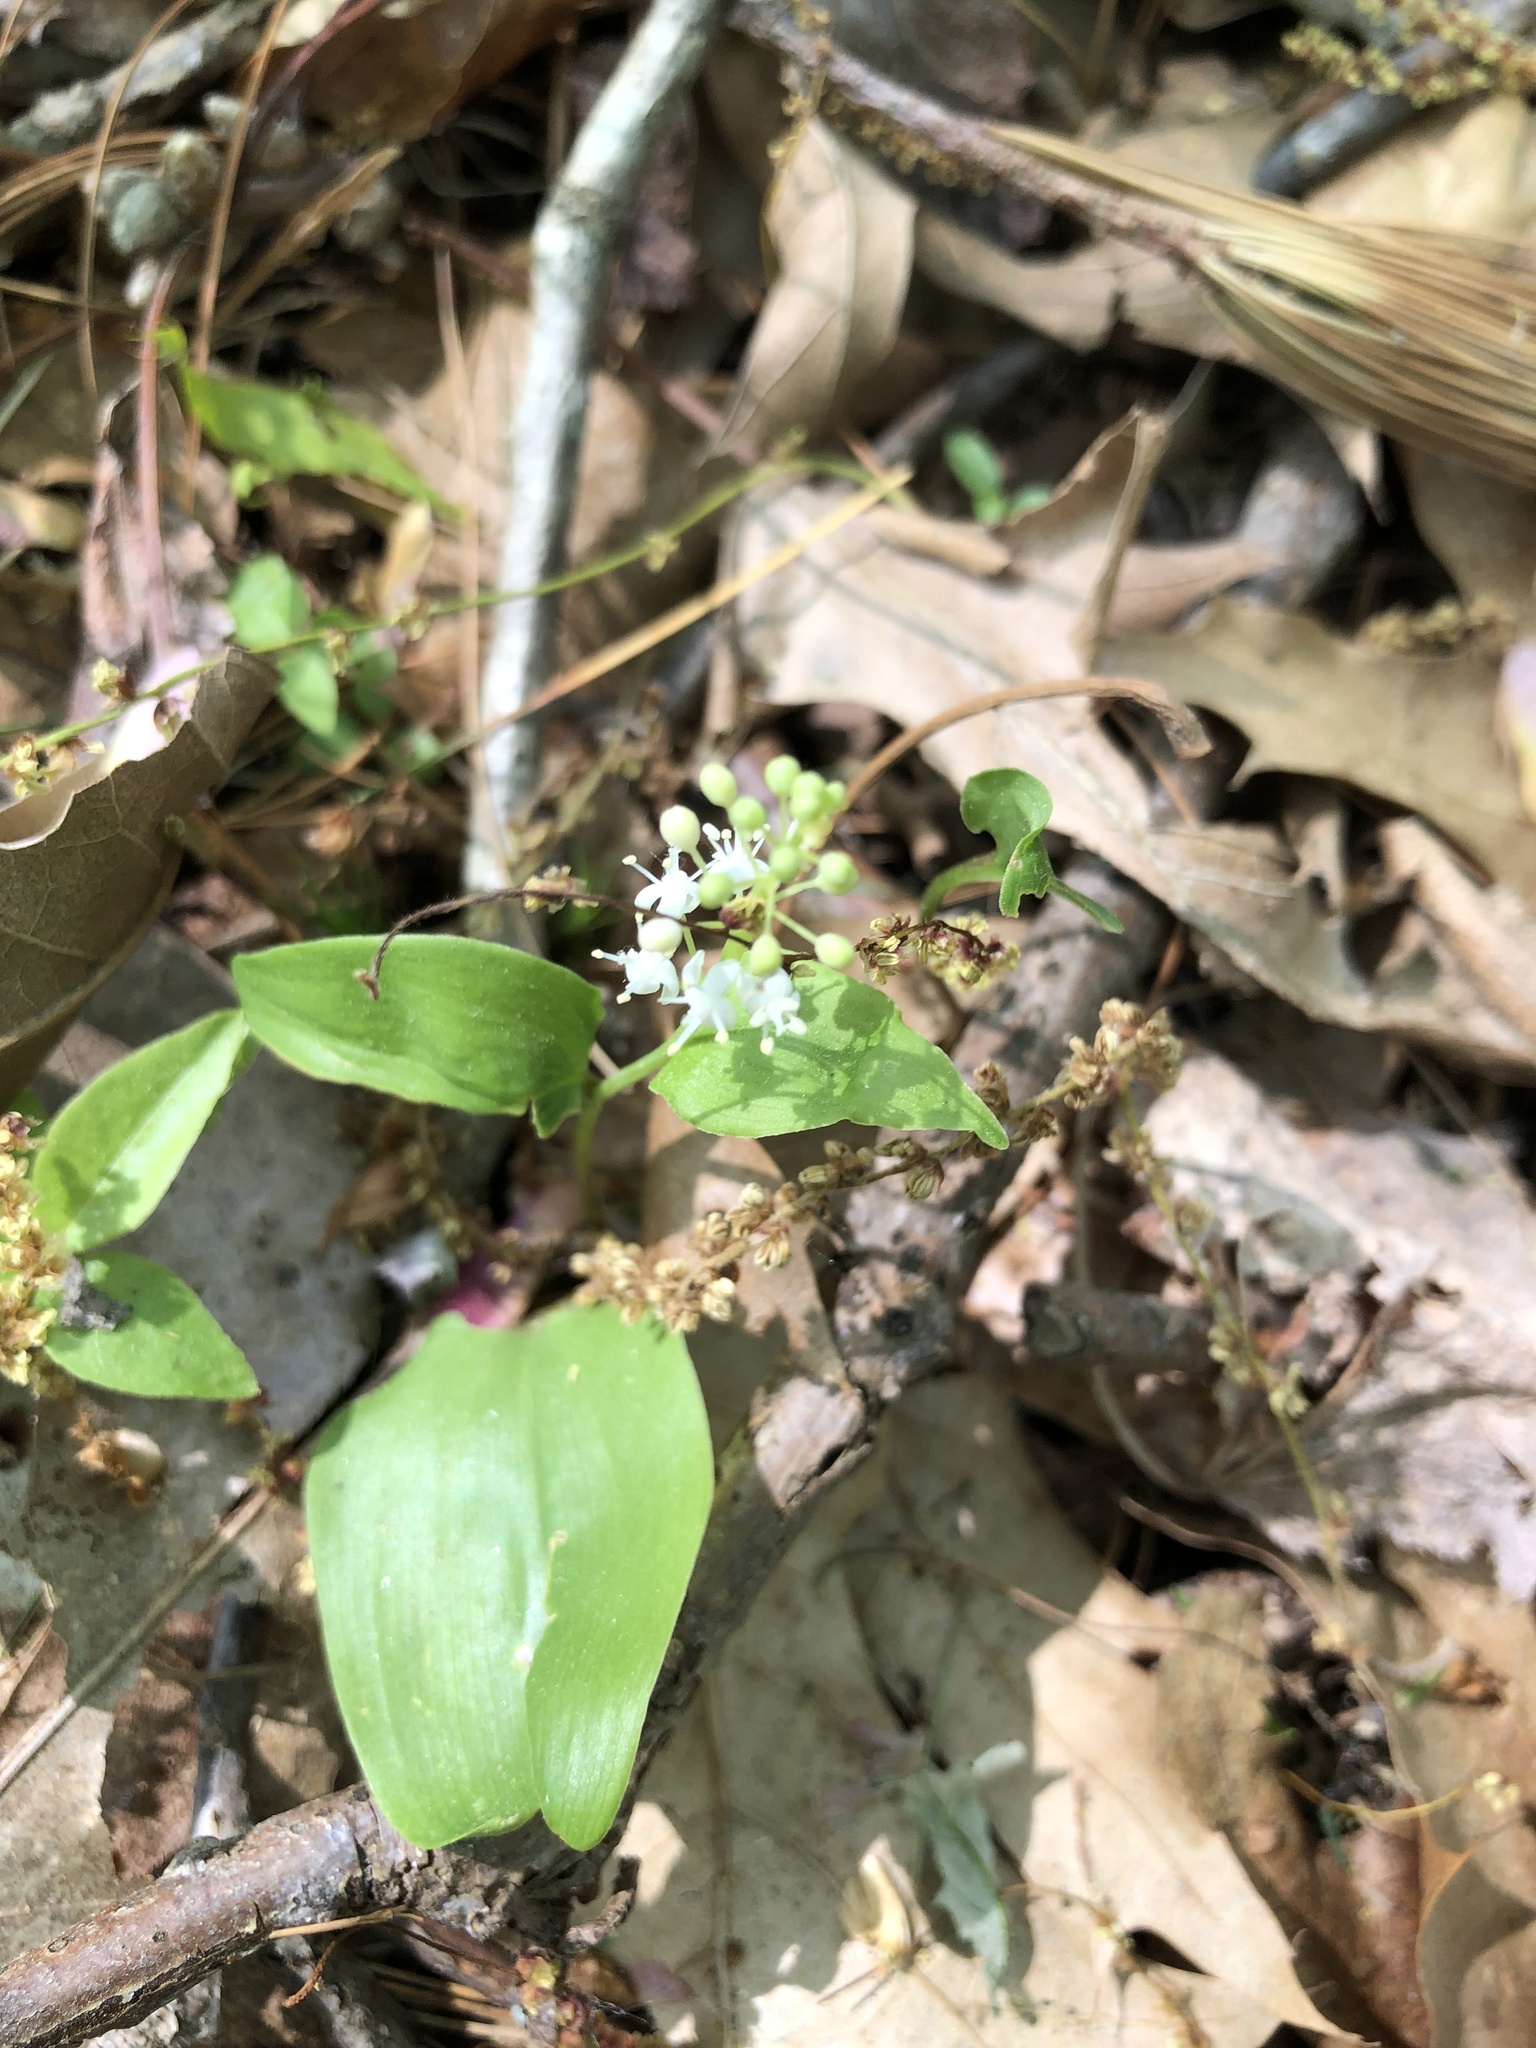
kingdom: Plantae
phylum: Tracheophyta
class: Liliopsida
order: Asparagales
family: Asparagaceae
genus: Maianthemum
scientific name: Maianthemum canadense
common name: False lily-of-the-valley
